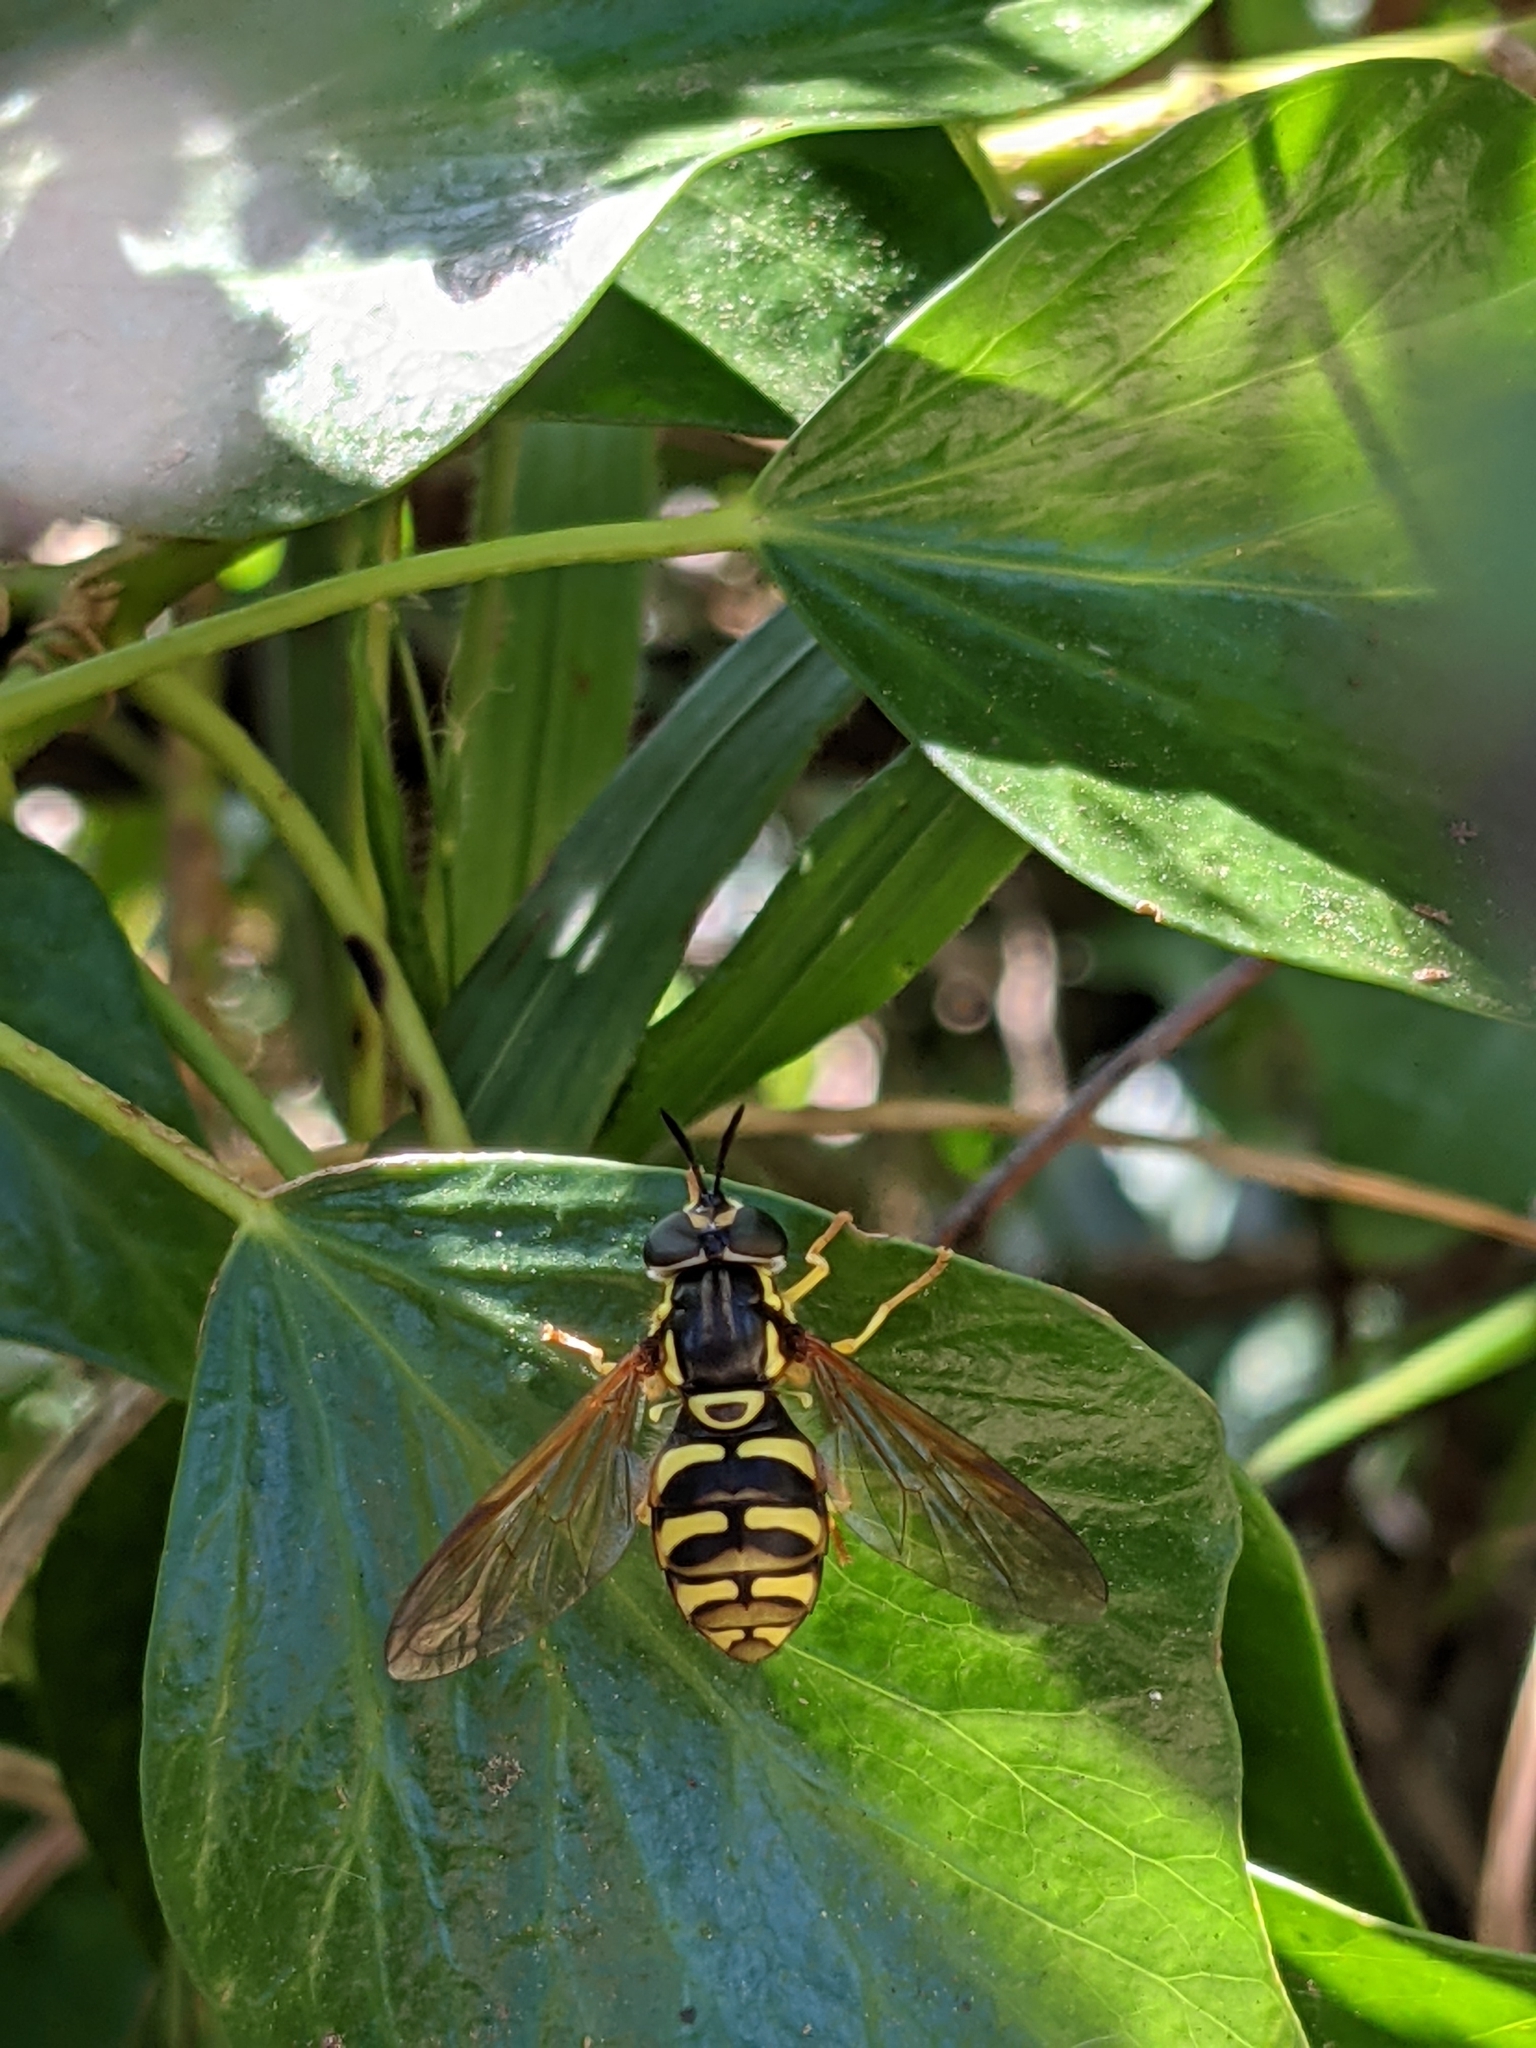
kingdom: Animalia
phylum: Arthropoda
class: Insecta
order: Diptera
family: Syrphidae
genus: Chrysotoxum
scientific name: Chrysotoxum festivum
